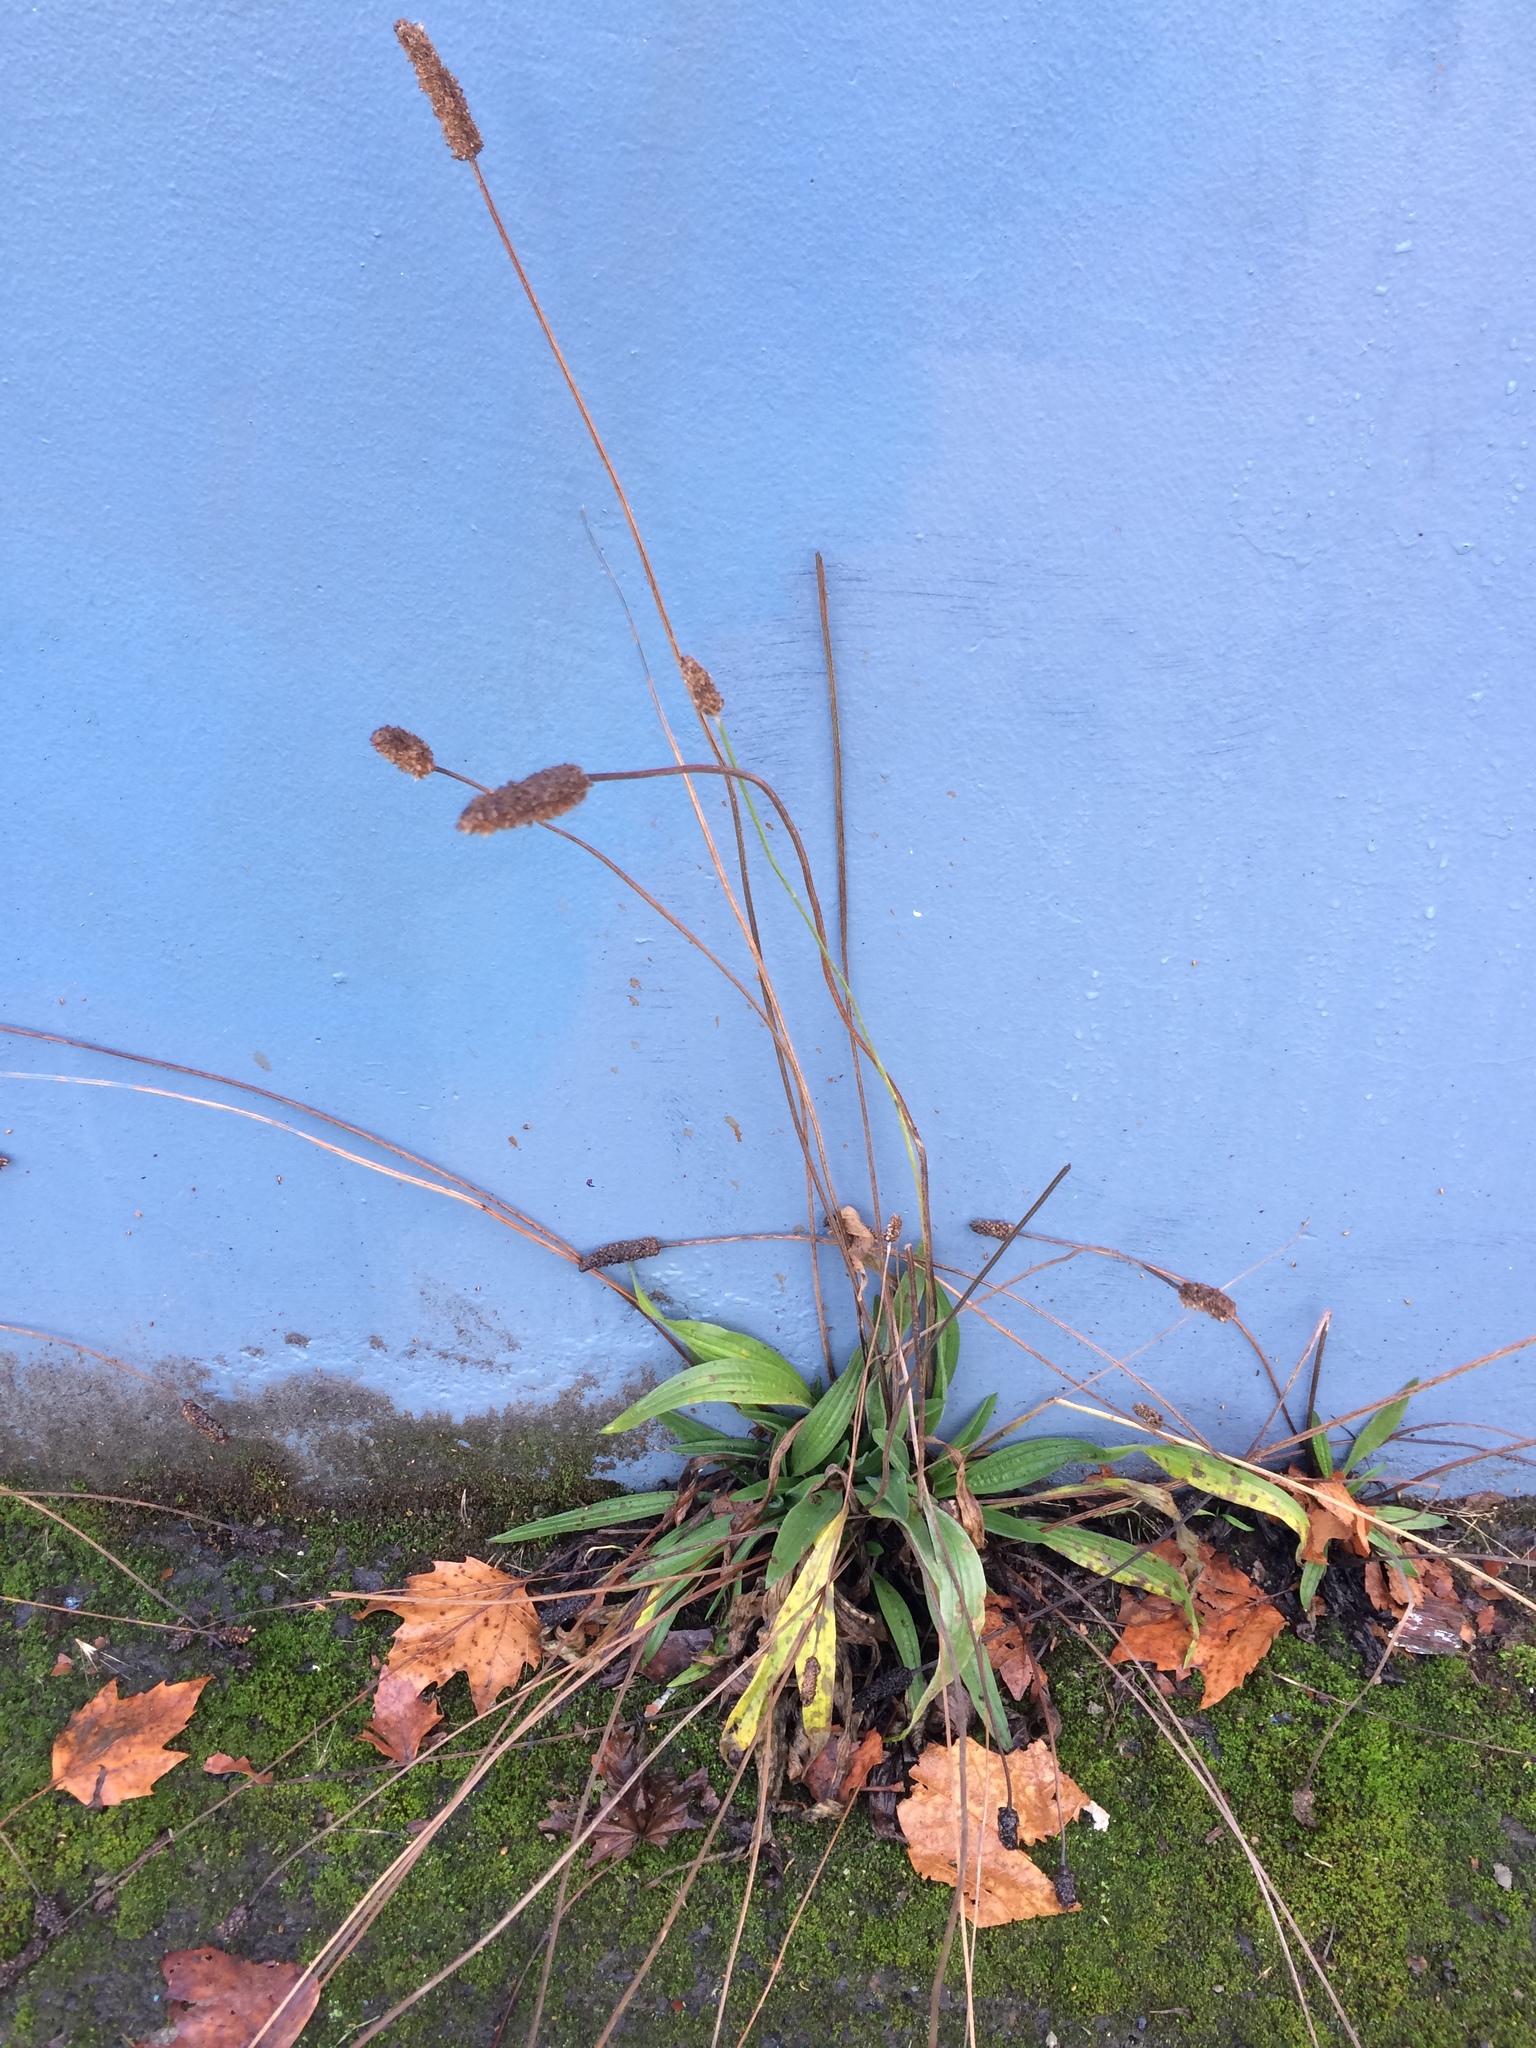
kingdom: Plantae
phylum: Tracheophyta
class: Magnoliopsida
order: Lamiales
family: Plantaginaceae
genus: Plantago
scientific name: Plantago lanceolata
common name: Ribwort plantain
